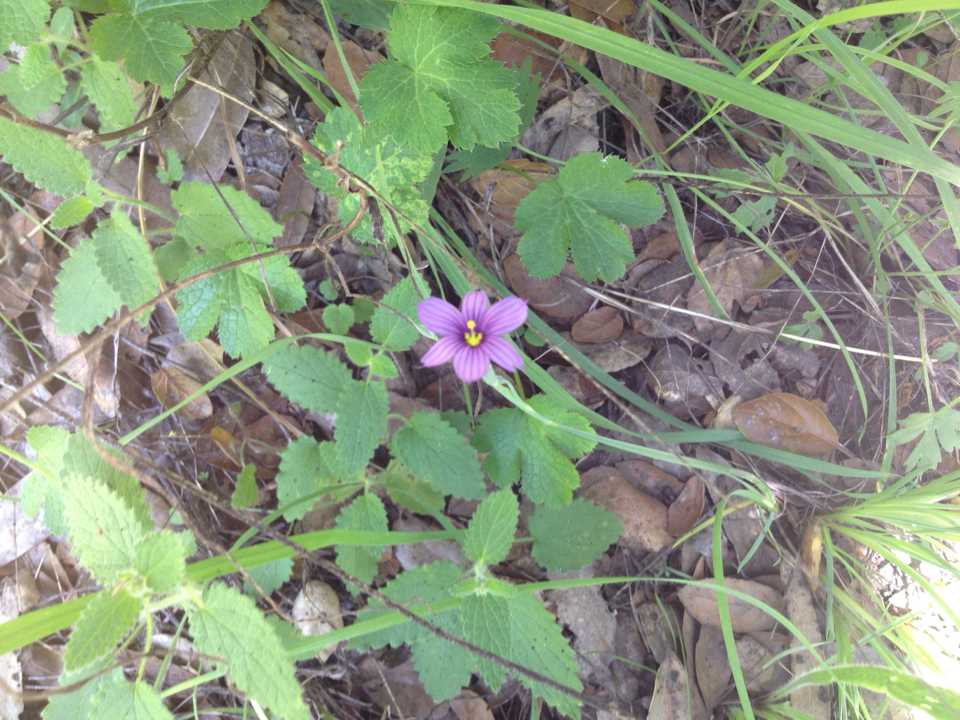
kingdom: Plantae
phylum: Tracheophyta
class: Liliopsida
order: Asparagales
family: Iridaceae
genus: Sisyrinchium
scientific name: Sisyrinchium bellum
